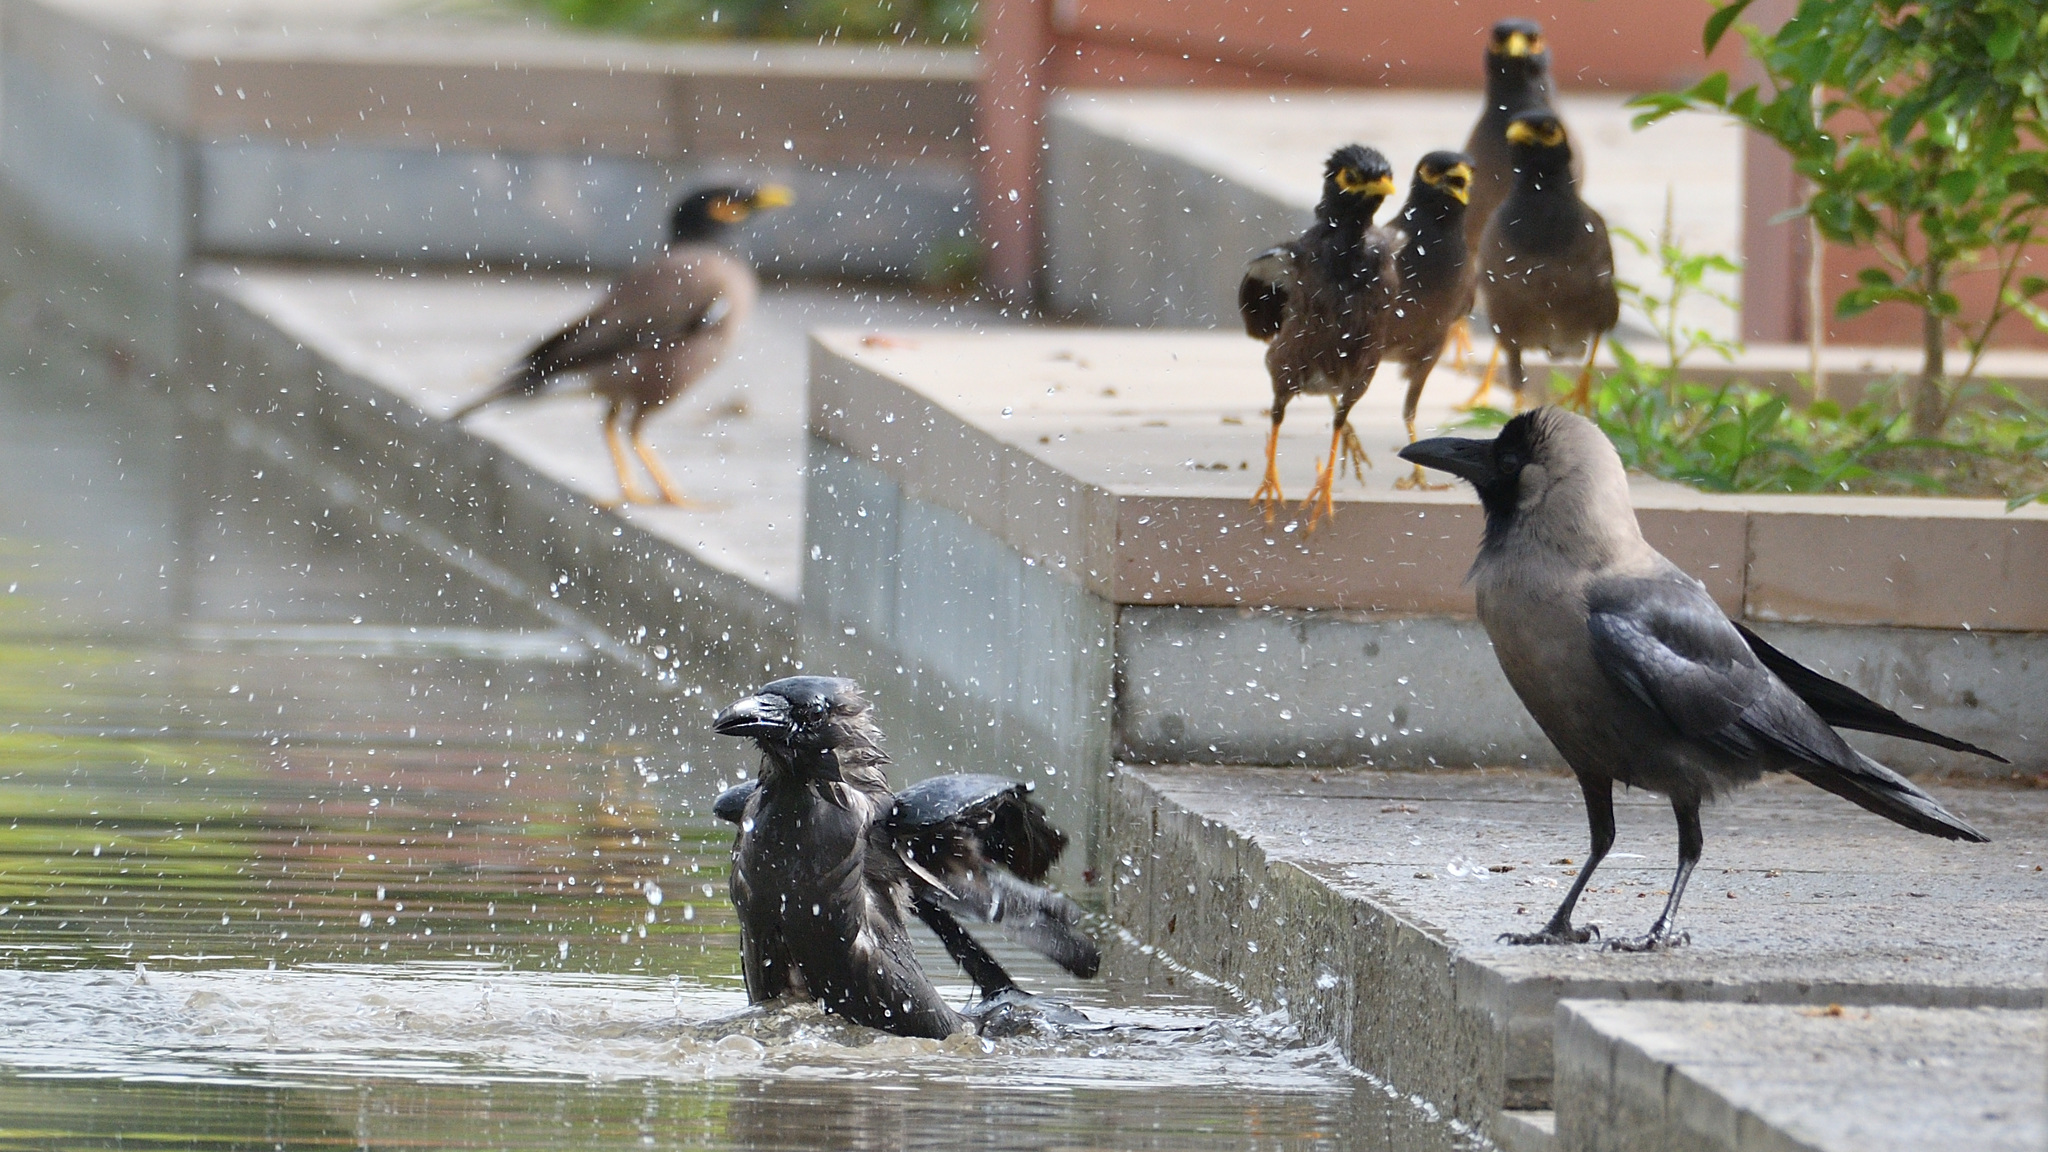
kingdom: Animalia
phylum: Chordata
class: Aves
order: Passeriformes
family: Corvidae
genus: Corvus
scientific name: Corvus splendens
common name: House crow
